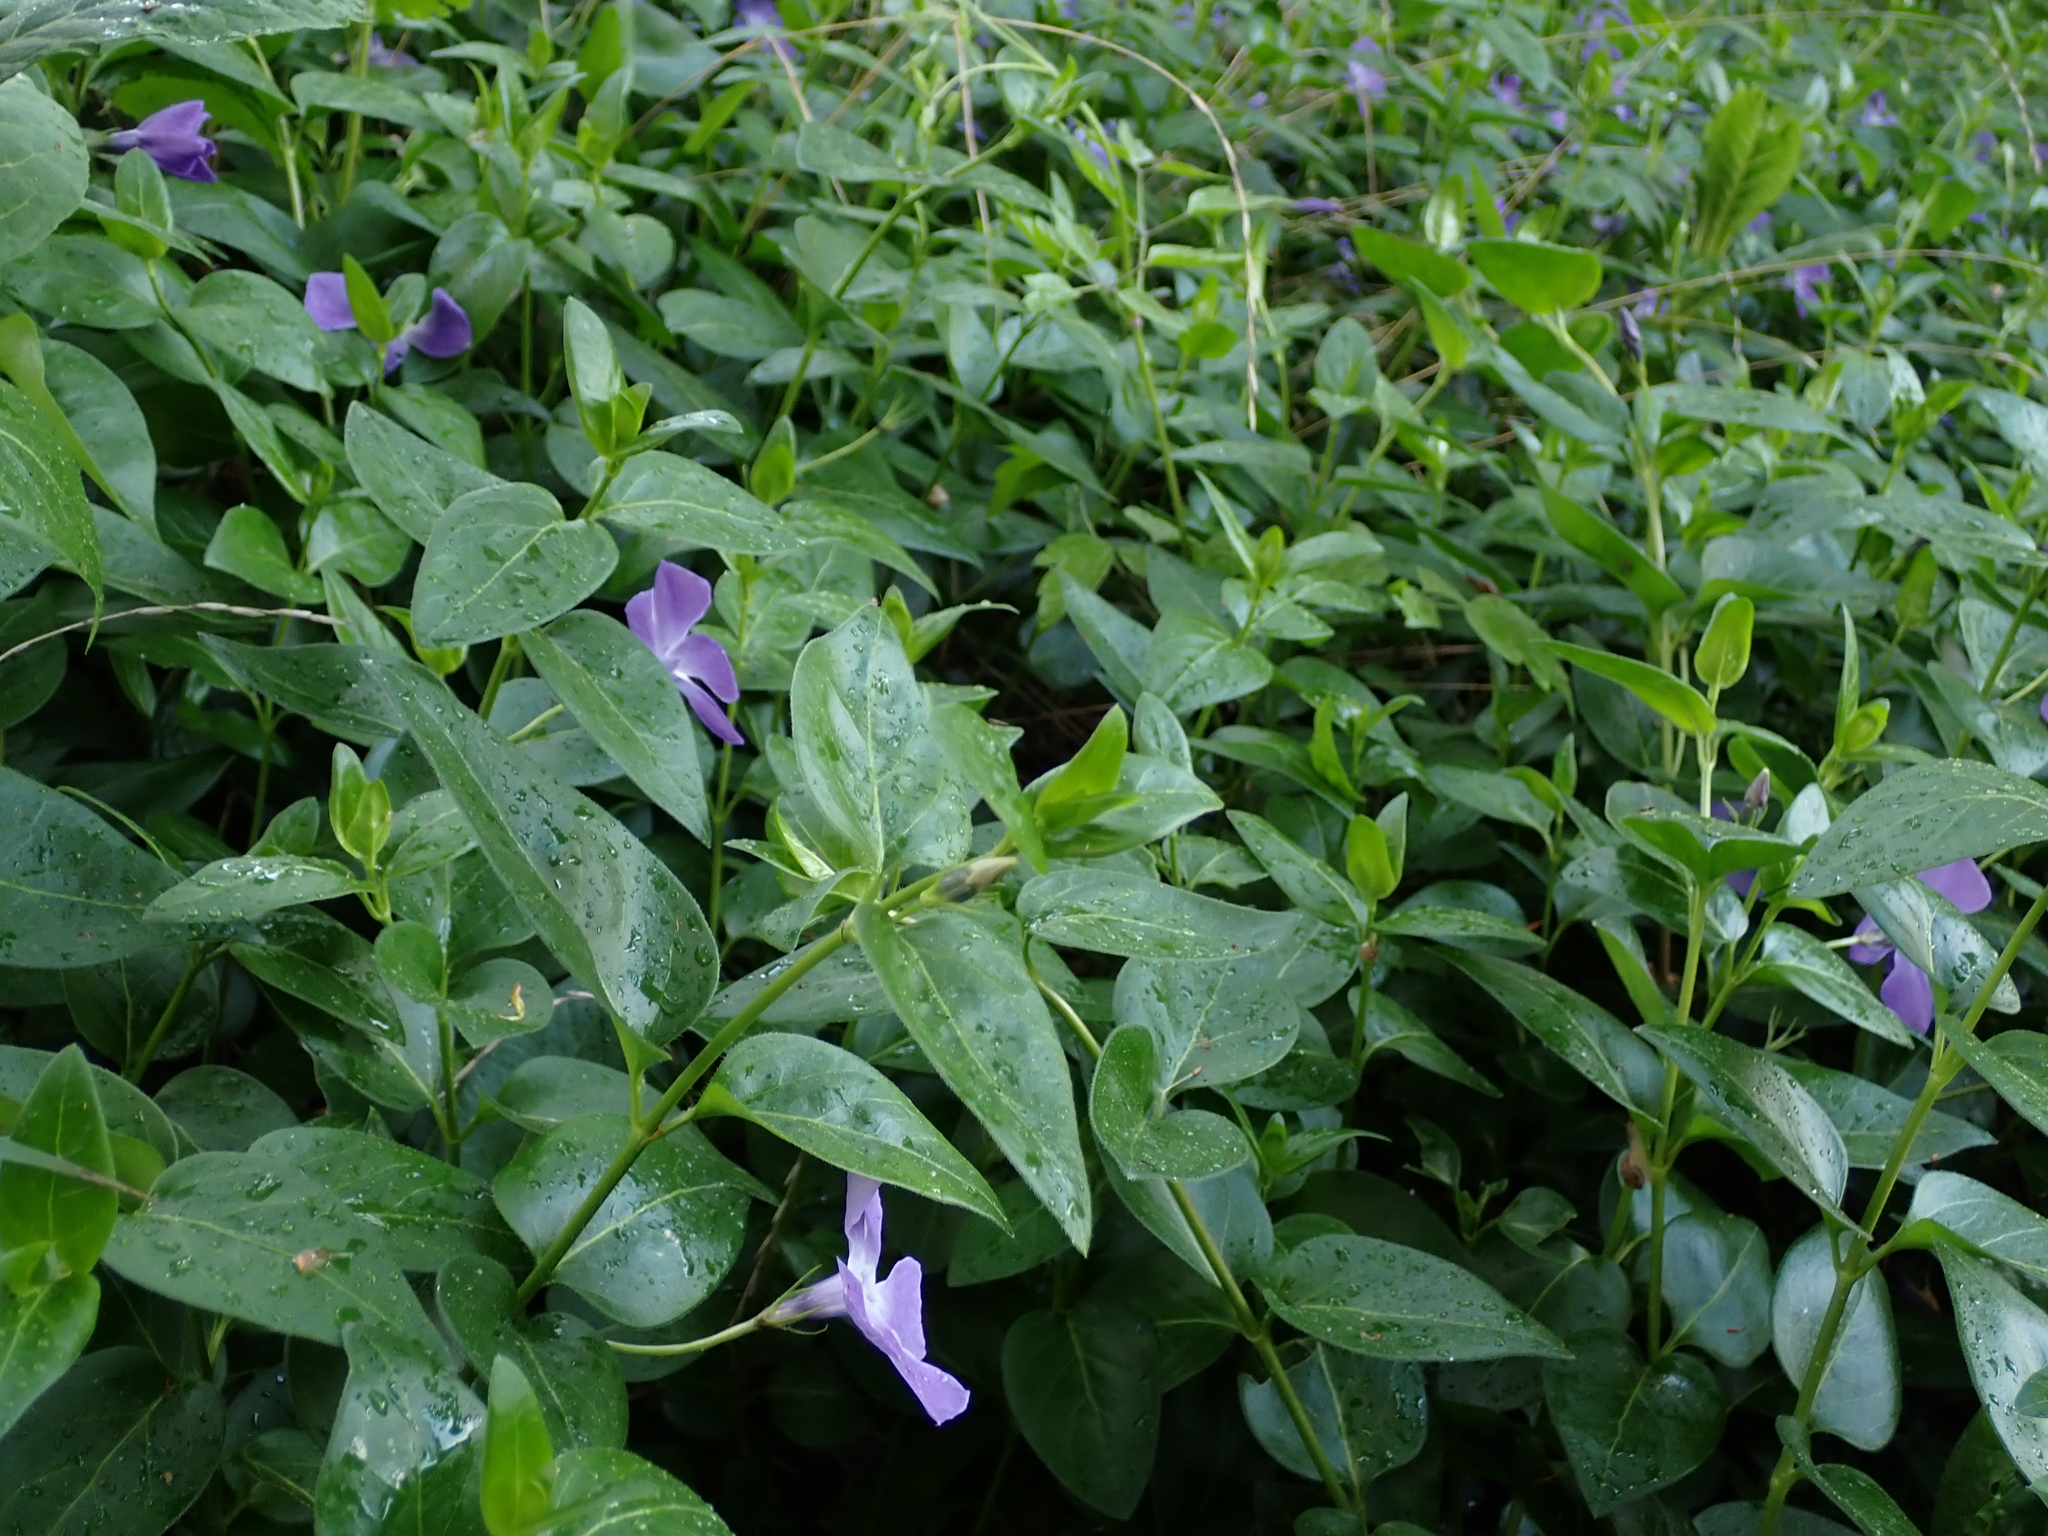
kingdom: Plantae
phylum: Tracheophyta
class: Magnoliopsida
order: Gentianales
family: Apocynaceae
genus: Vinca
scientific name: Vinca major
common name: Greater periwinkle
